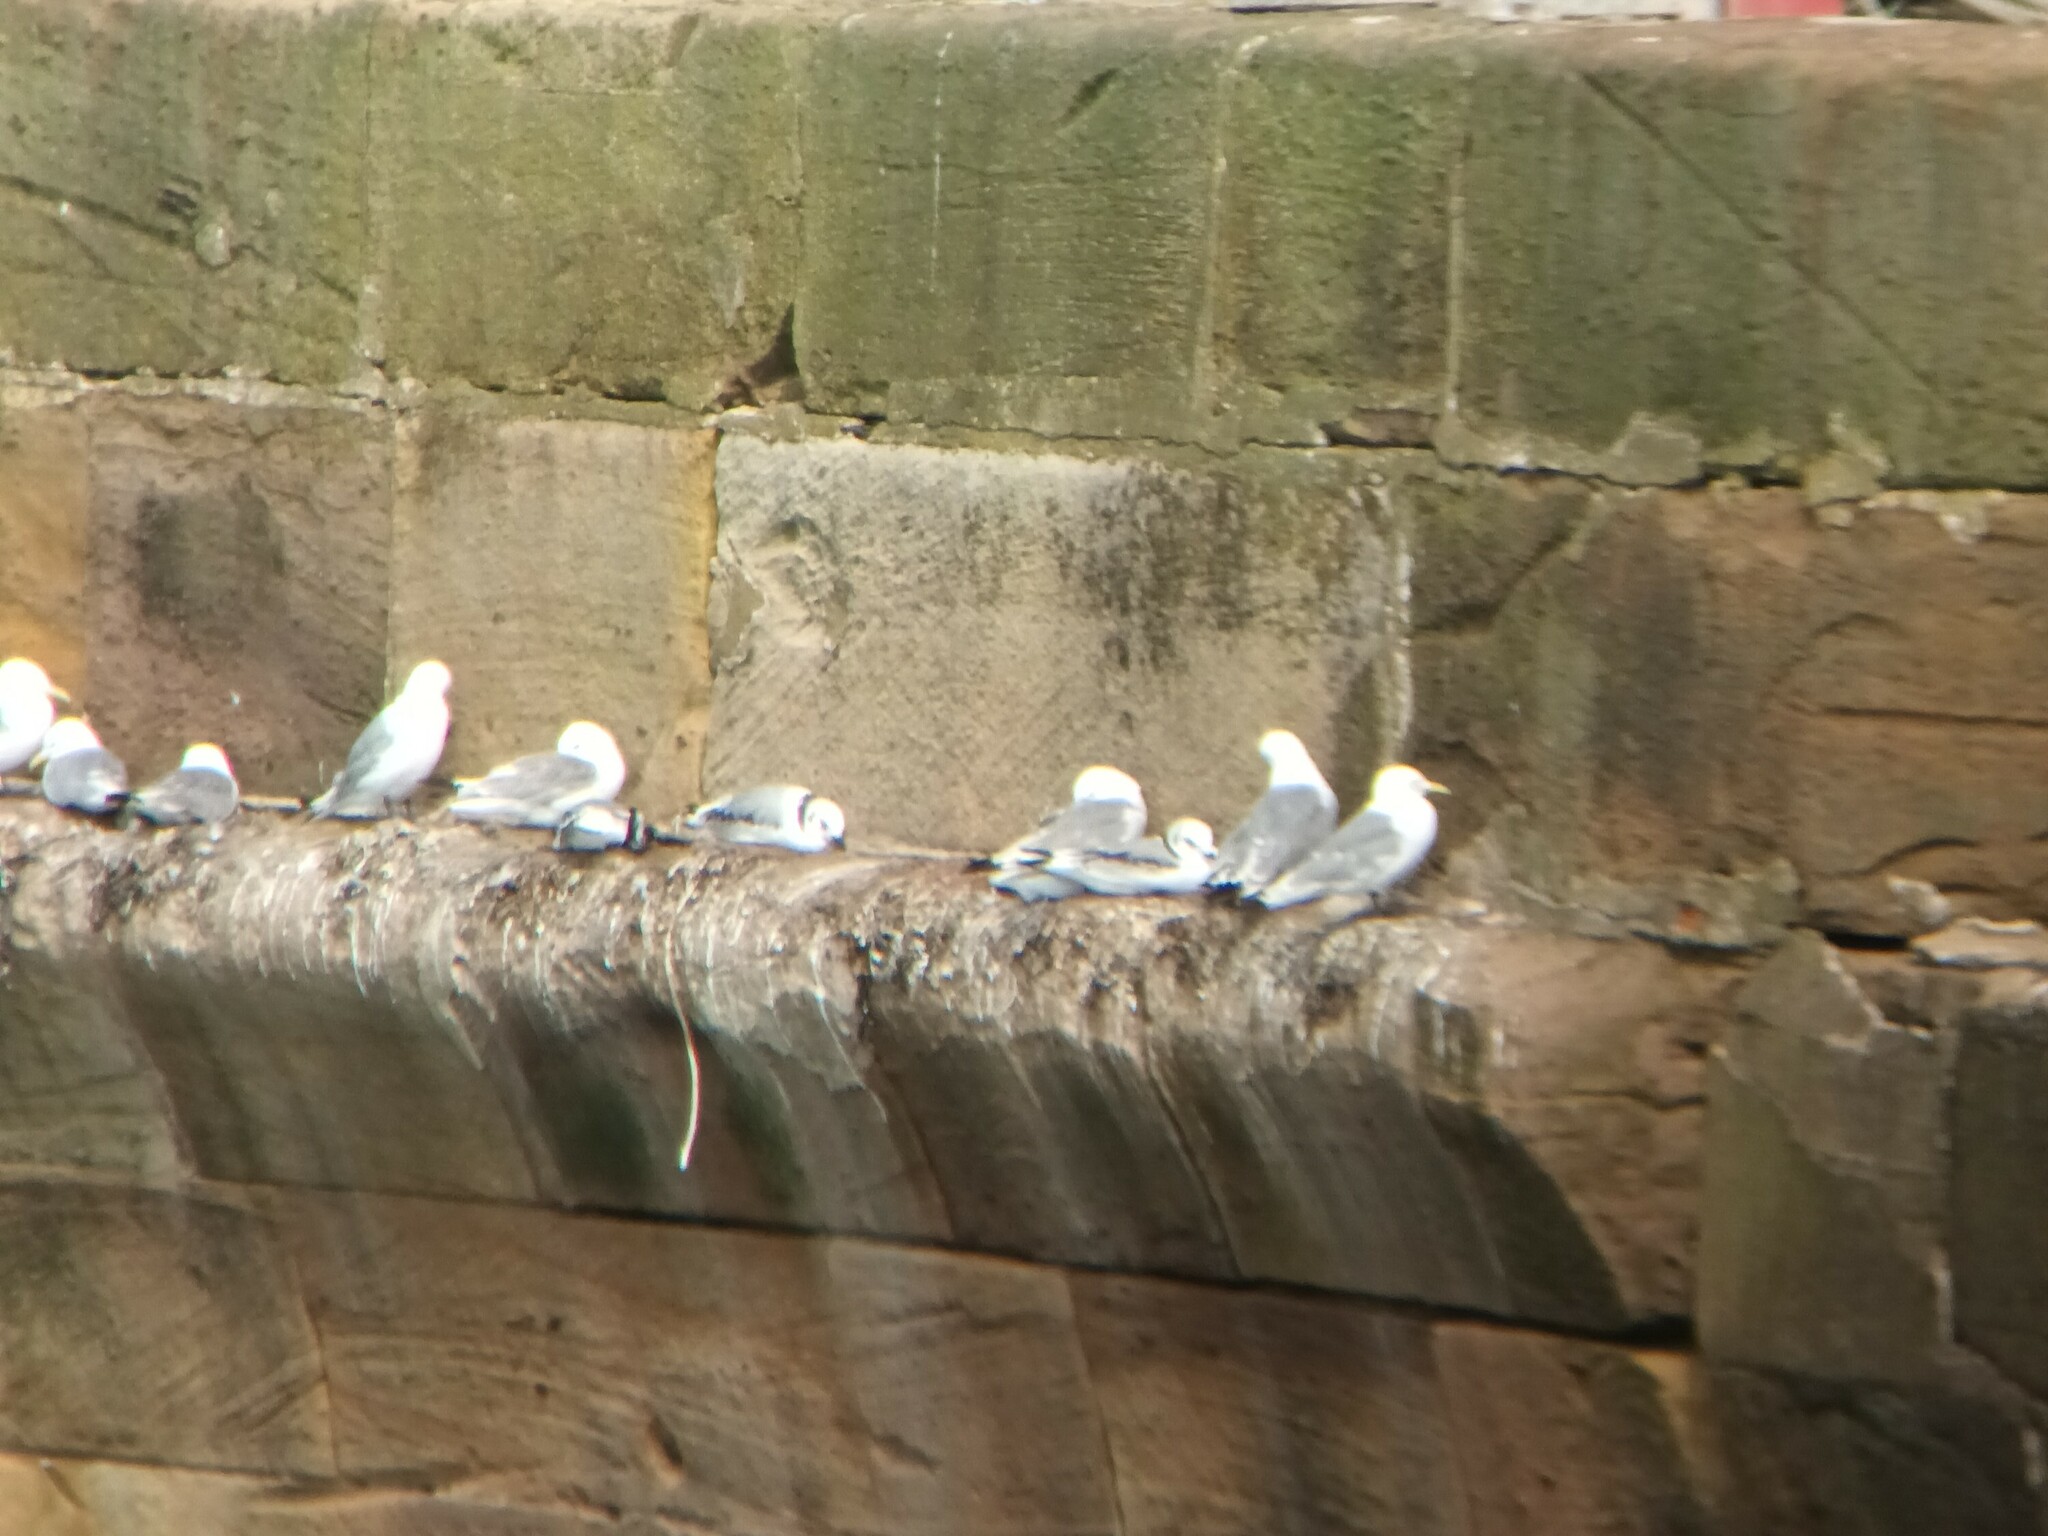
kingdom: Animalia
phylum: Chordata
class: Aves
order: Charadriiformes
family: Laridae
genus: Rissa
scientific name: Rissa tridactyla
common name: Black-legged kittiwake
